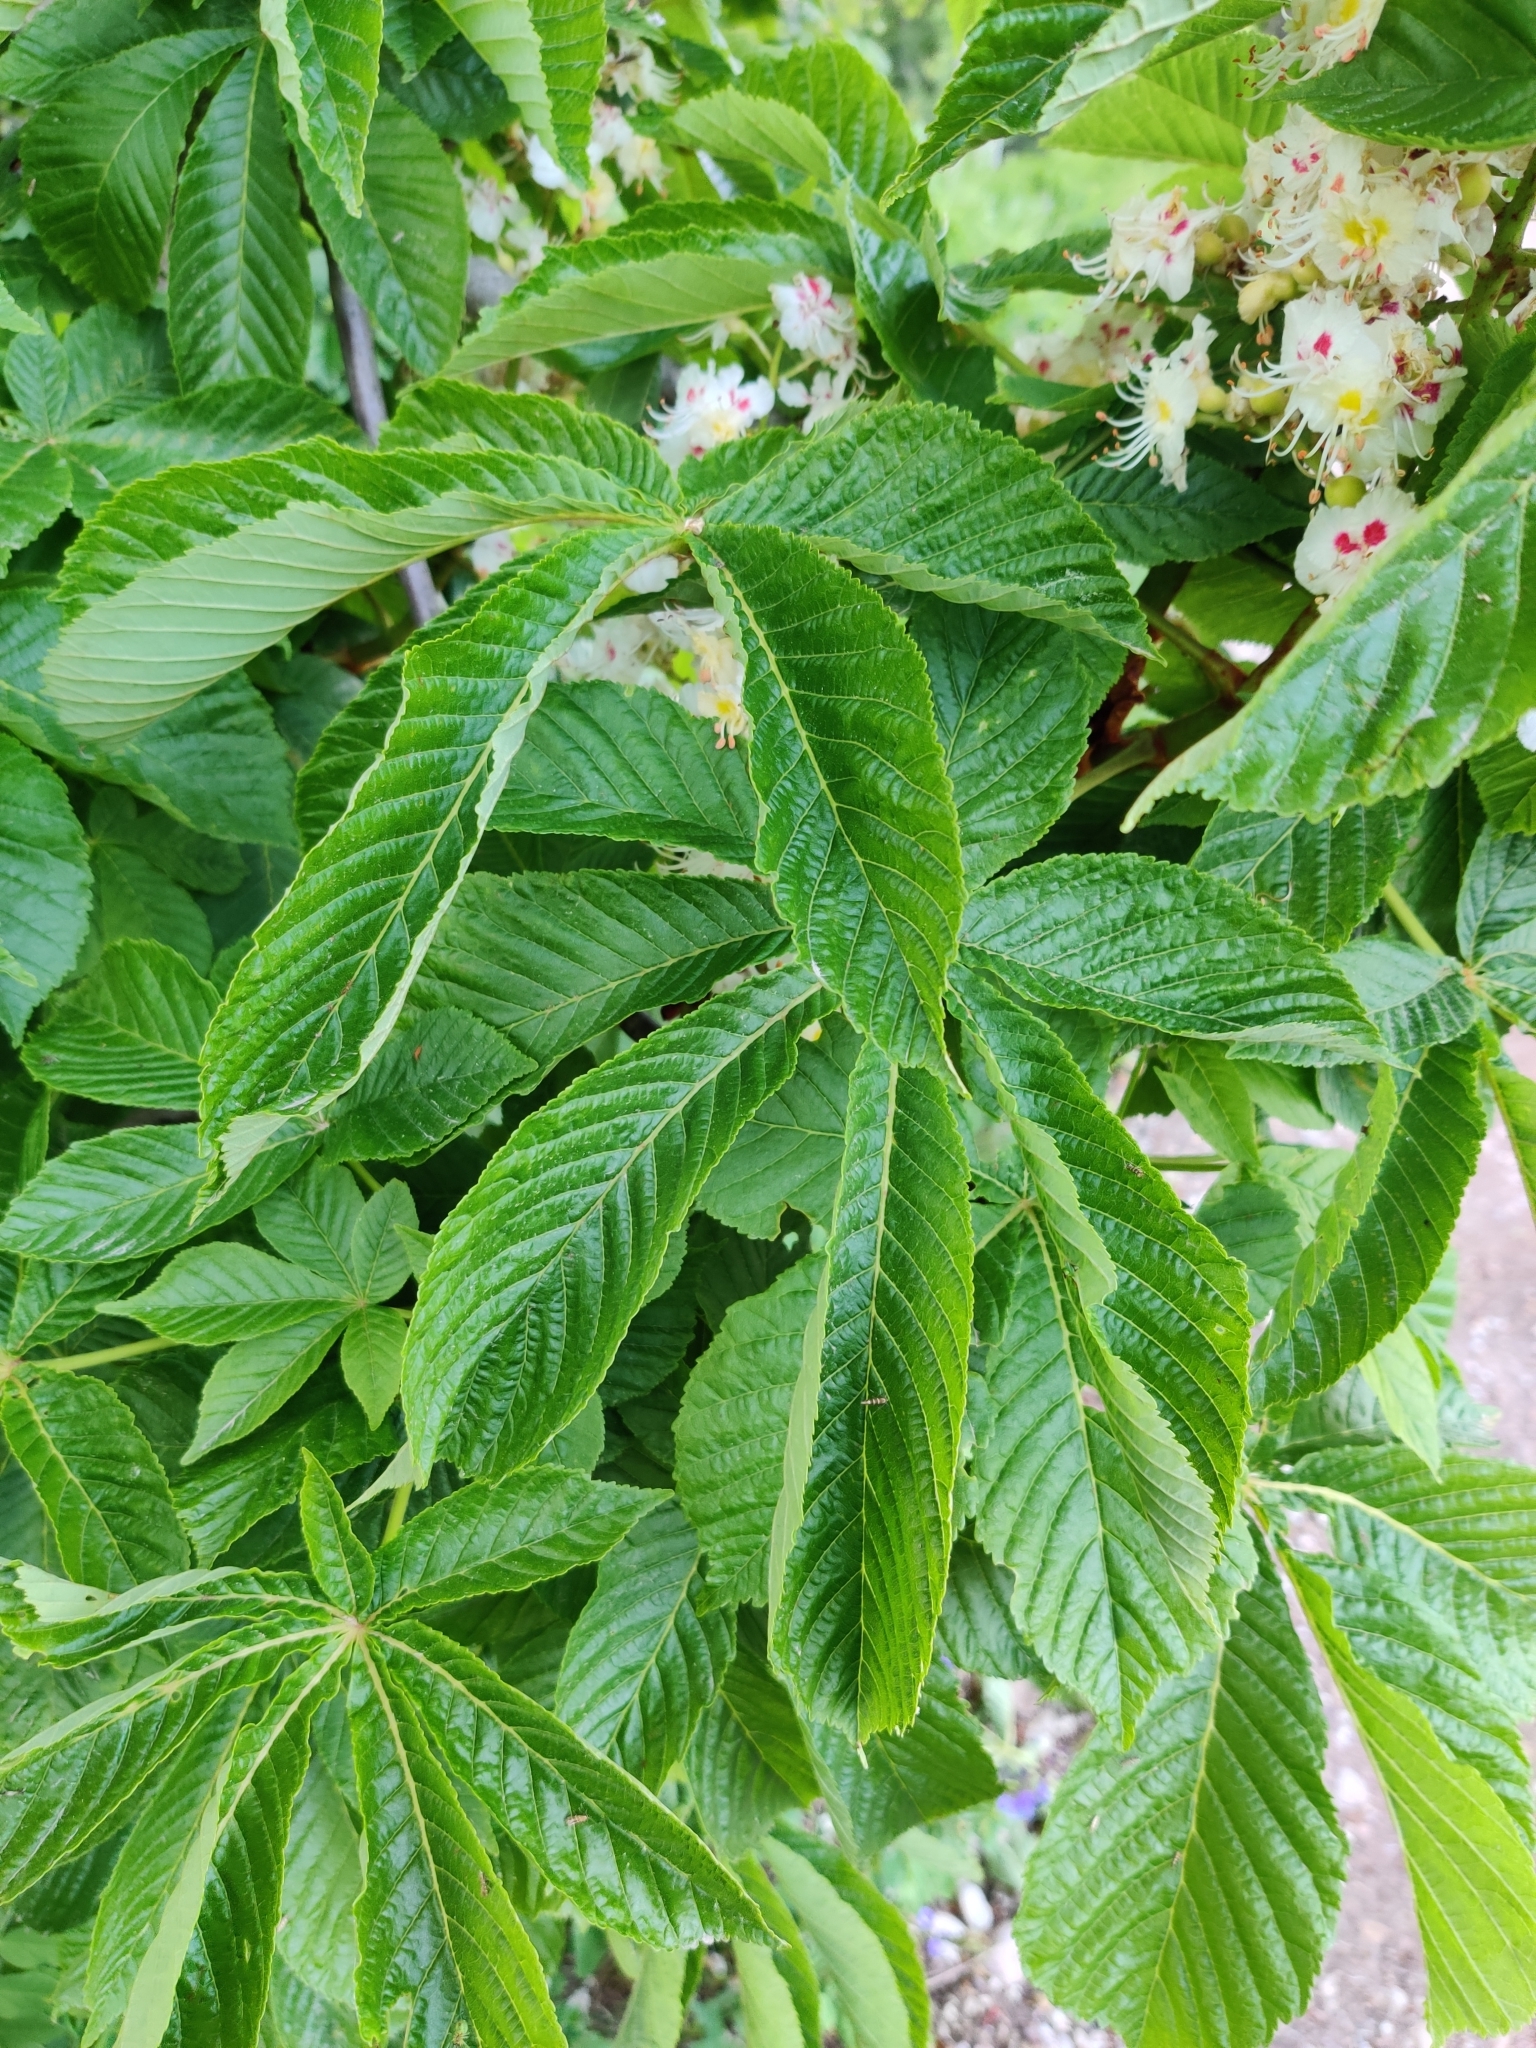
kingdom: Plantae
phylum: Tracheophyta
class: Magnoliopsida
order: Sapindales
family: Sapindaceae
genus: Aesculus
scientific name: Aesculus hippocastanum
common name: Horse-chestnut
